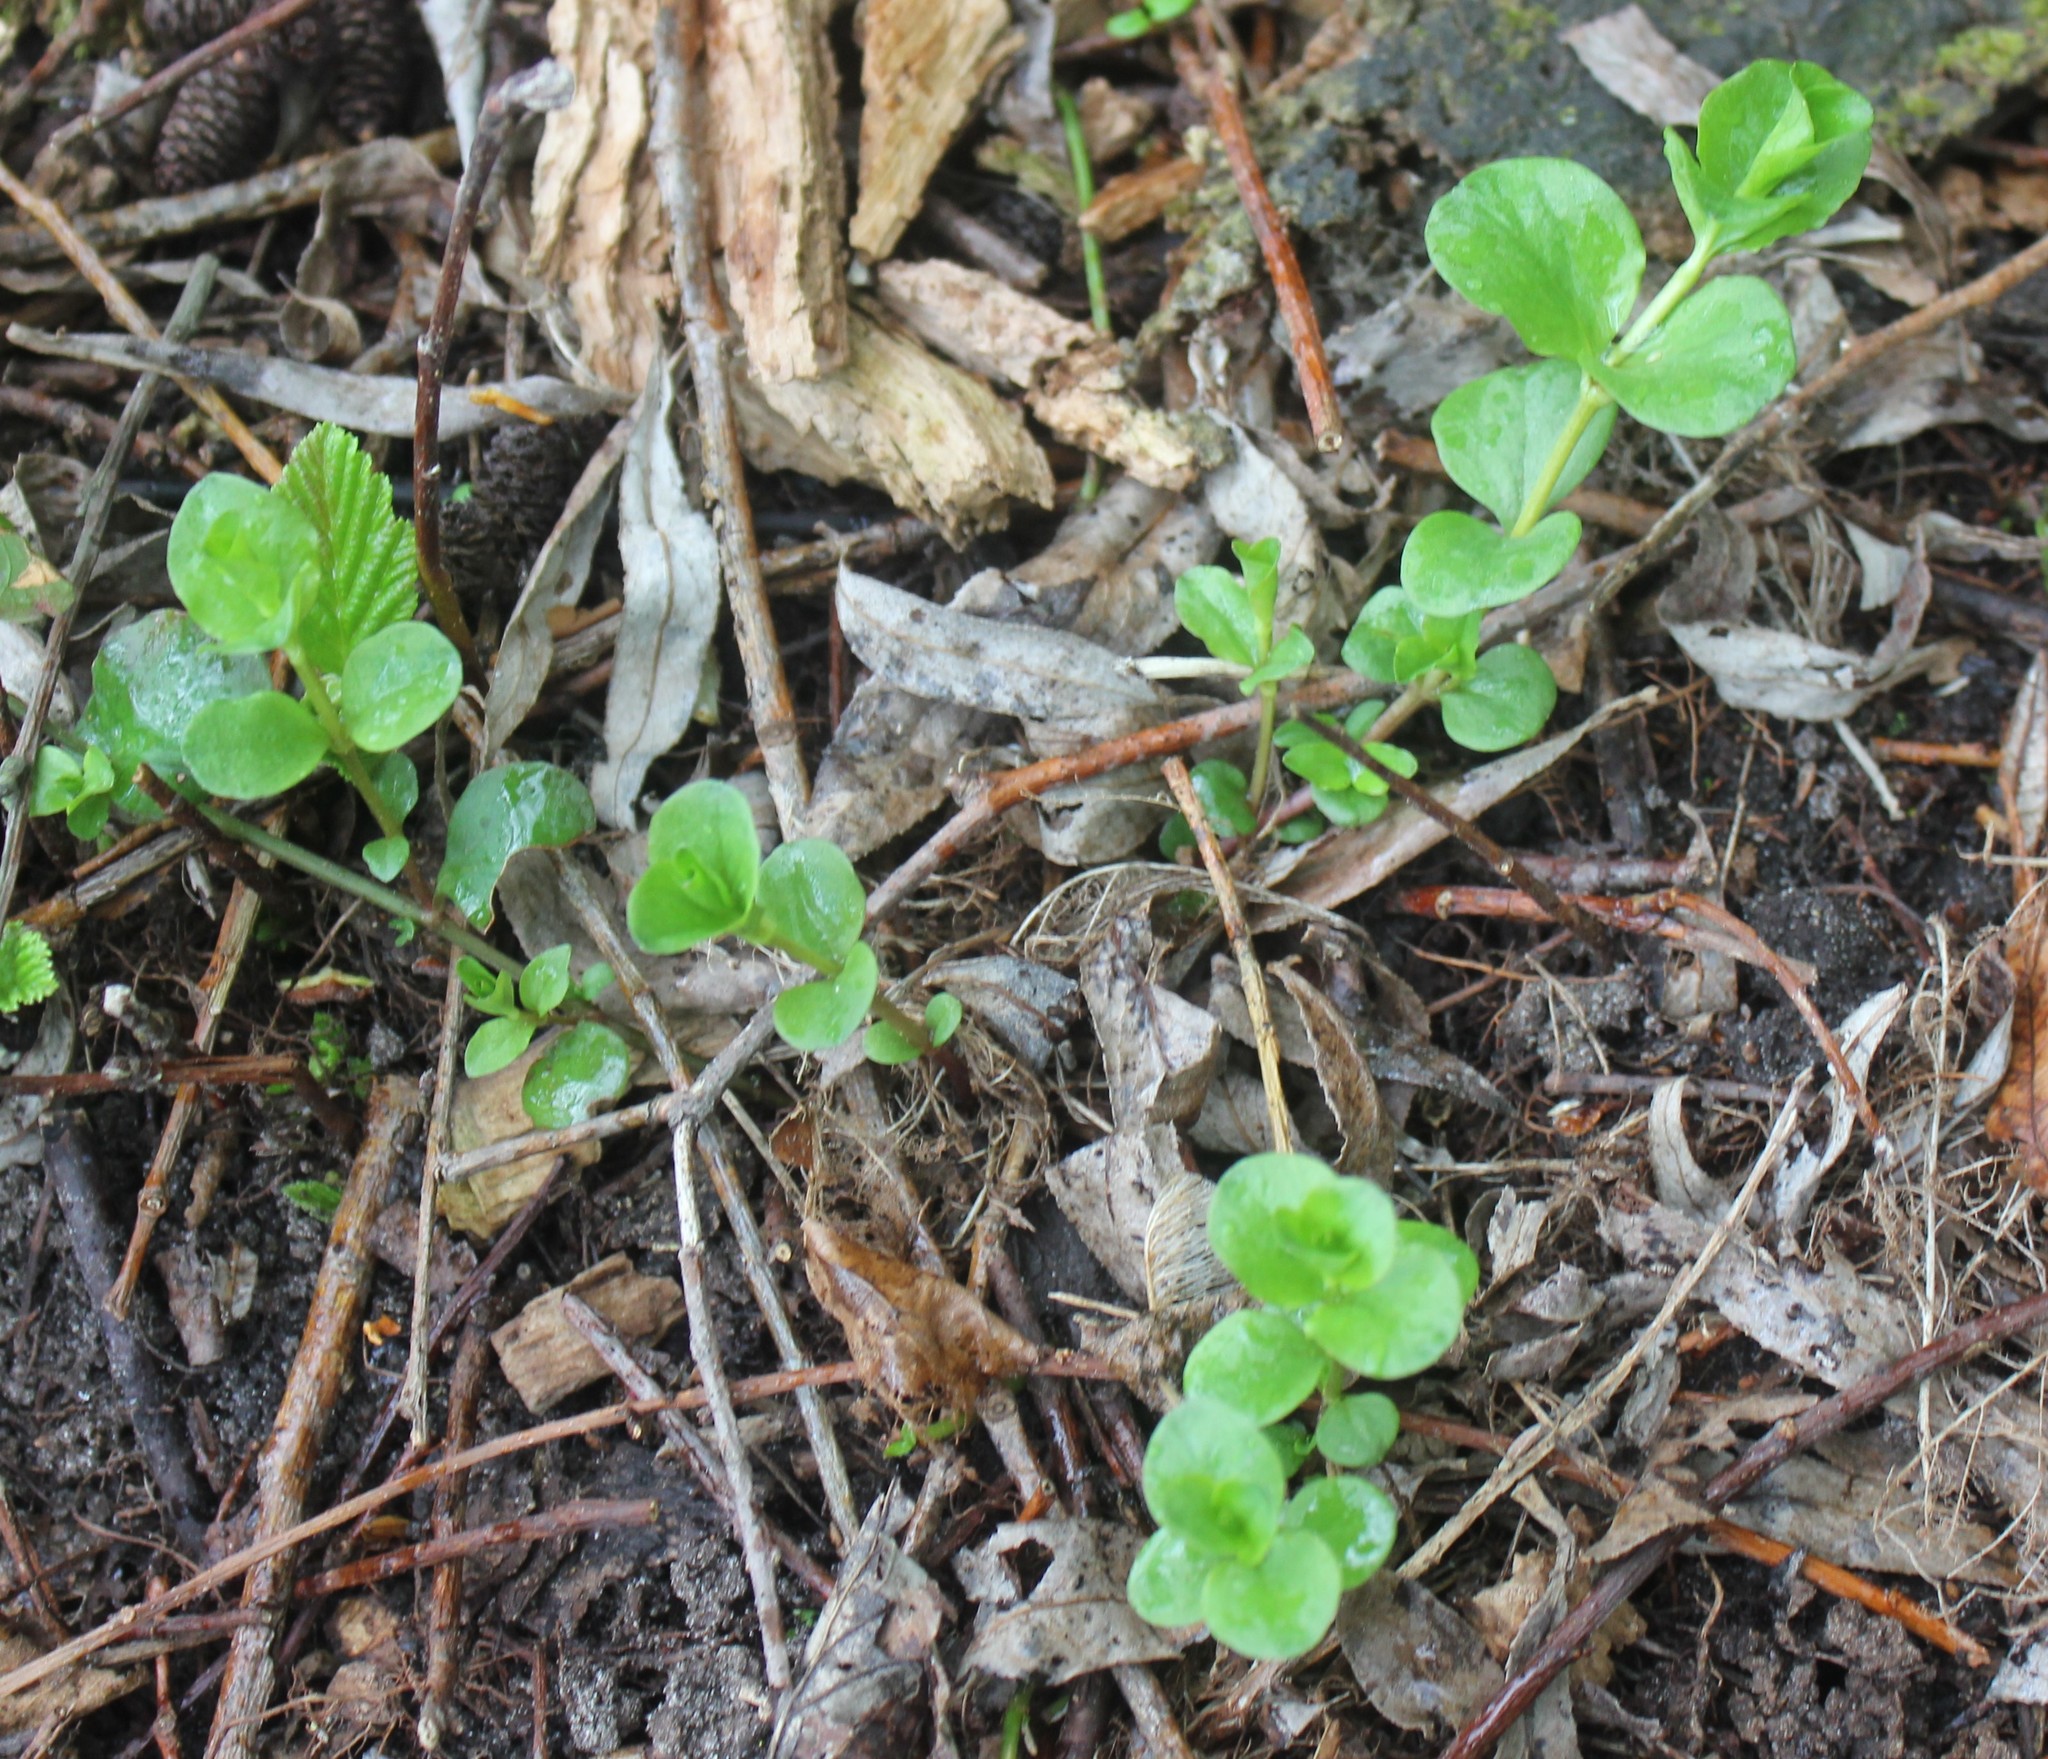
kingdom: Plantae
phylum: Tracheophyta
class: Magnoliopsida
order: Ericales
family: Primulaceae
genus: Lysimachia
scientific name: Lysimachia nummularia
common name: Moneywort
